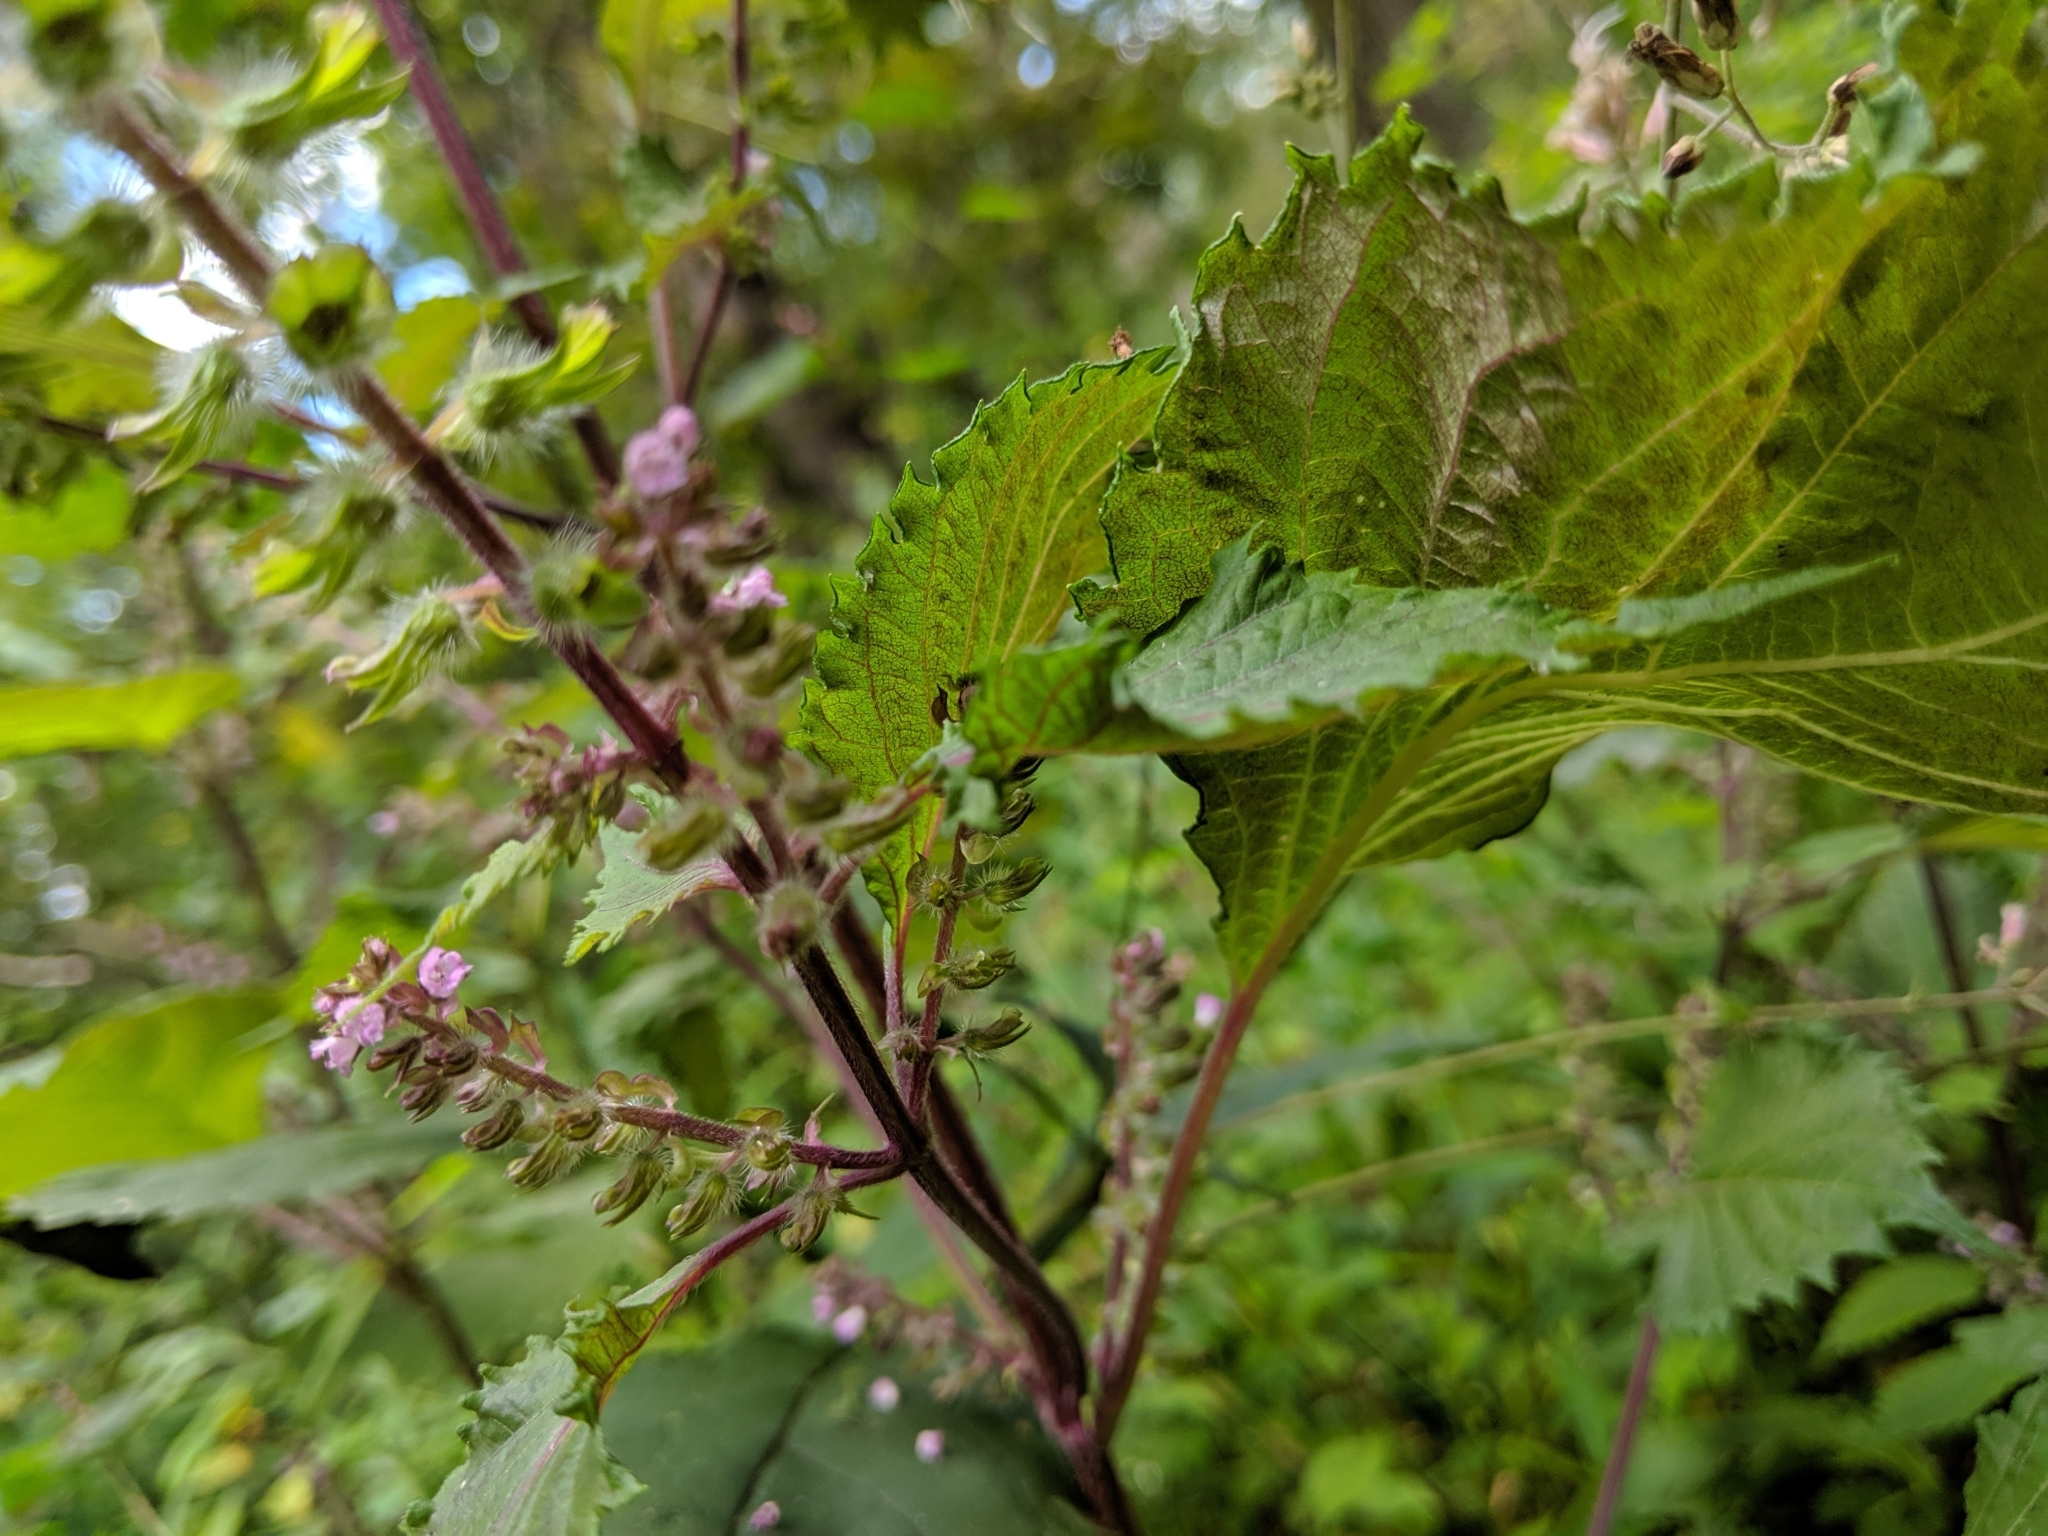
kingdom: Plantae
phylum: Tracheophyta
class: Magnoliopsida
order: Lamiales
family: Lamiaceae
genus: Perilla
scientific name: Perilla frutescens
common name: Perilla
